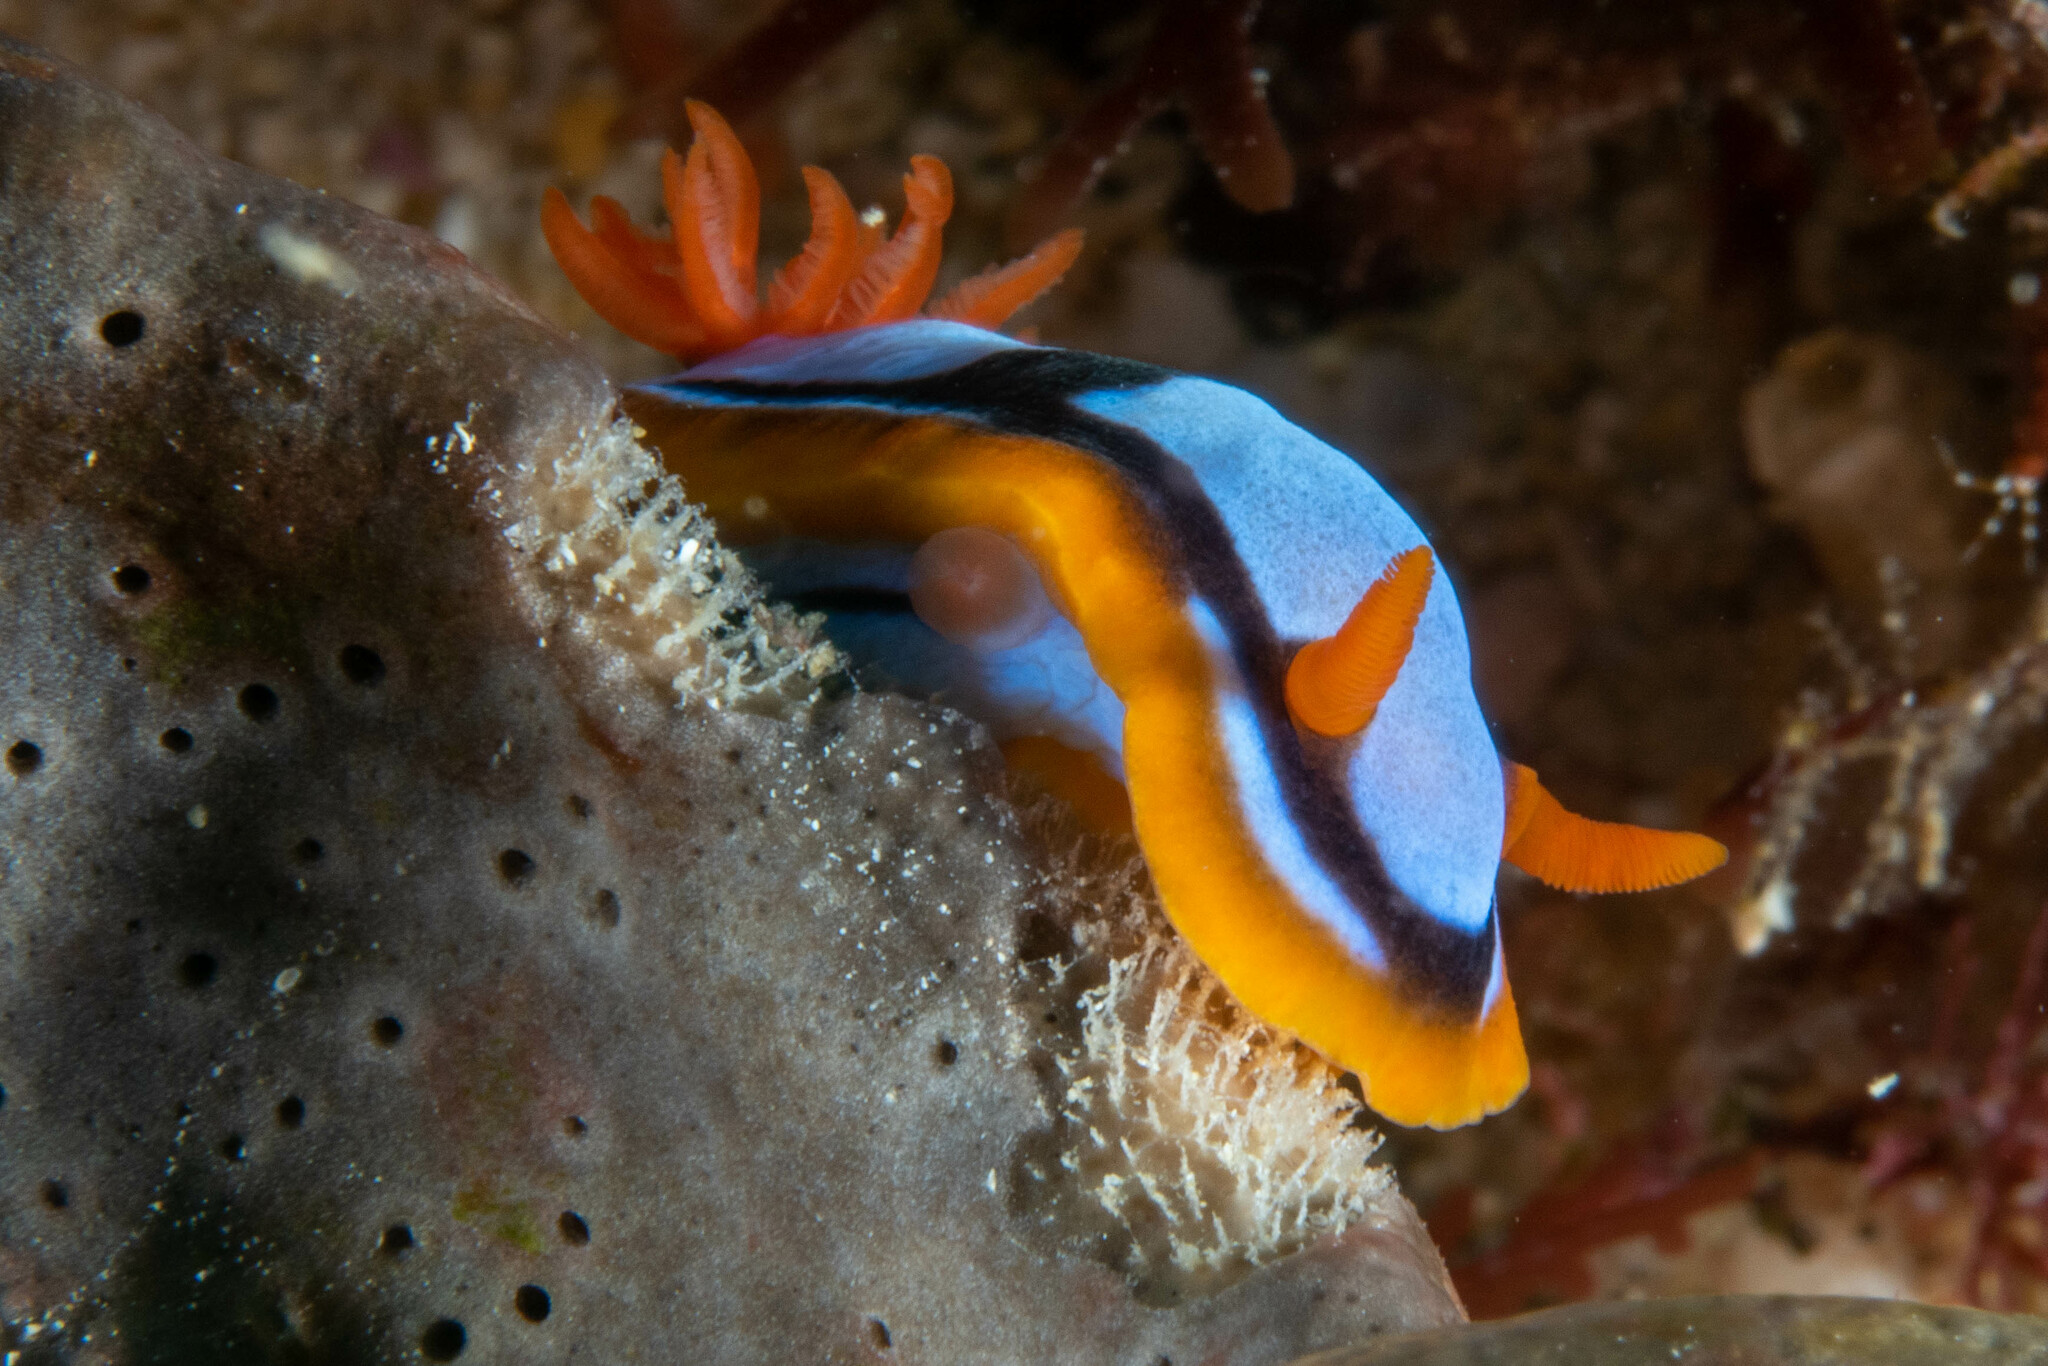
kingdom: Animalia
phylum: Mollusca
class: Gastropoda
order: Nudibranchia
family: Chromodorididae
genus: Chromodoris
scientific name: Chromodoris westraliensis
